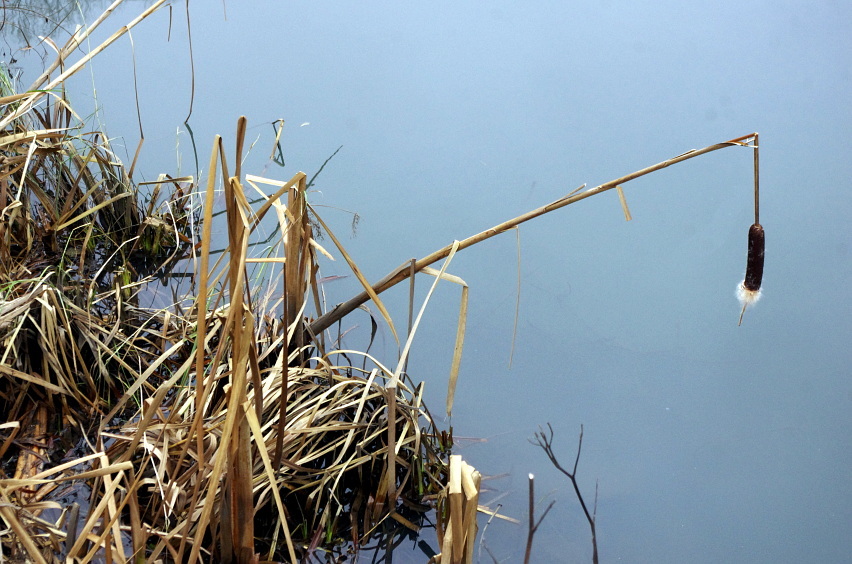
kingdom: Plantae
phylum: Tracheophyta
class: Liliopsida
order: Poales
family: Typhaceae
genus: Typha
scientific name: Typha latifolia
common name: Broadleaf cattail
